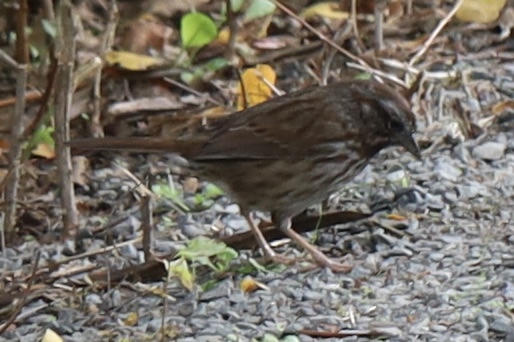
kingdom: Animalia
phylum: Chordata
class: Aves
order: Passeriformes
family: Passerellidae
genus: Melospiza
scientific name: Melospiza melodia
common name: Song sparrow
